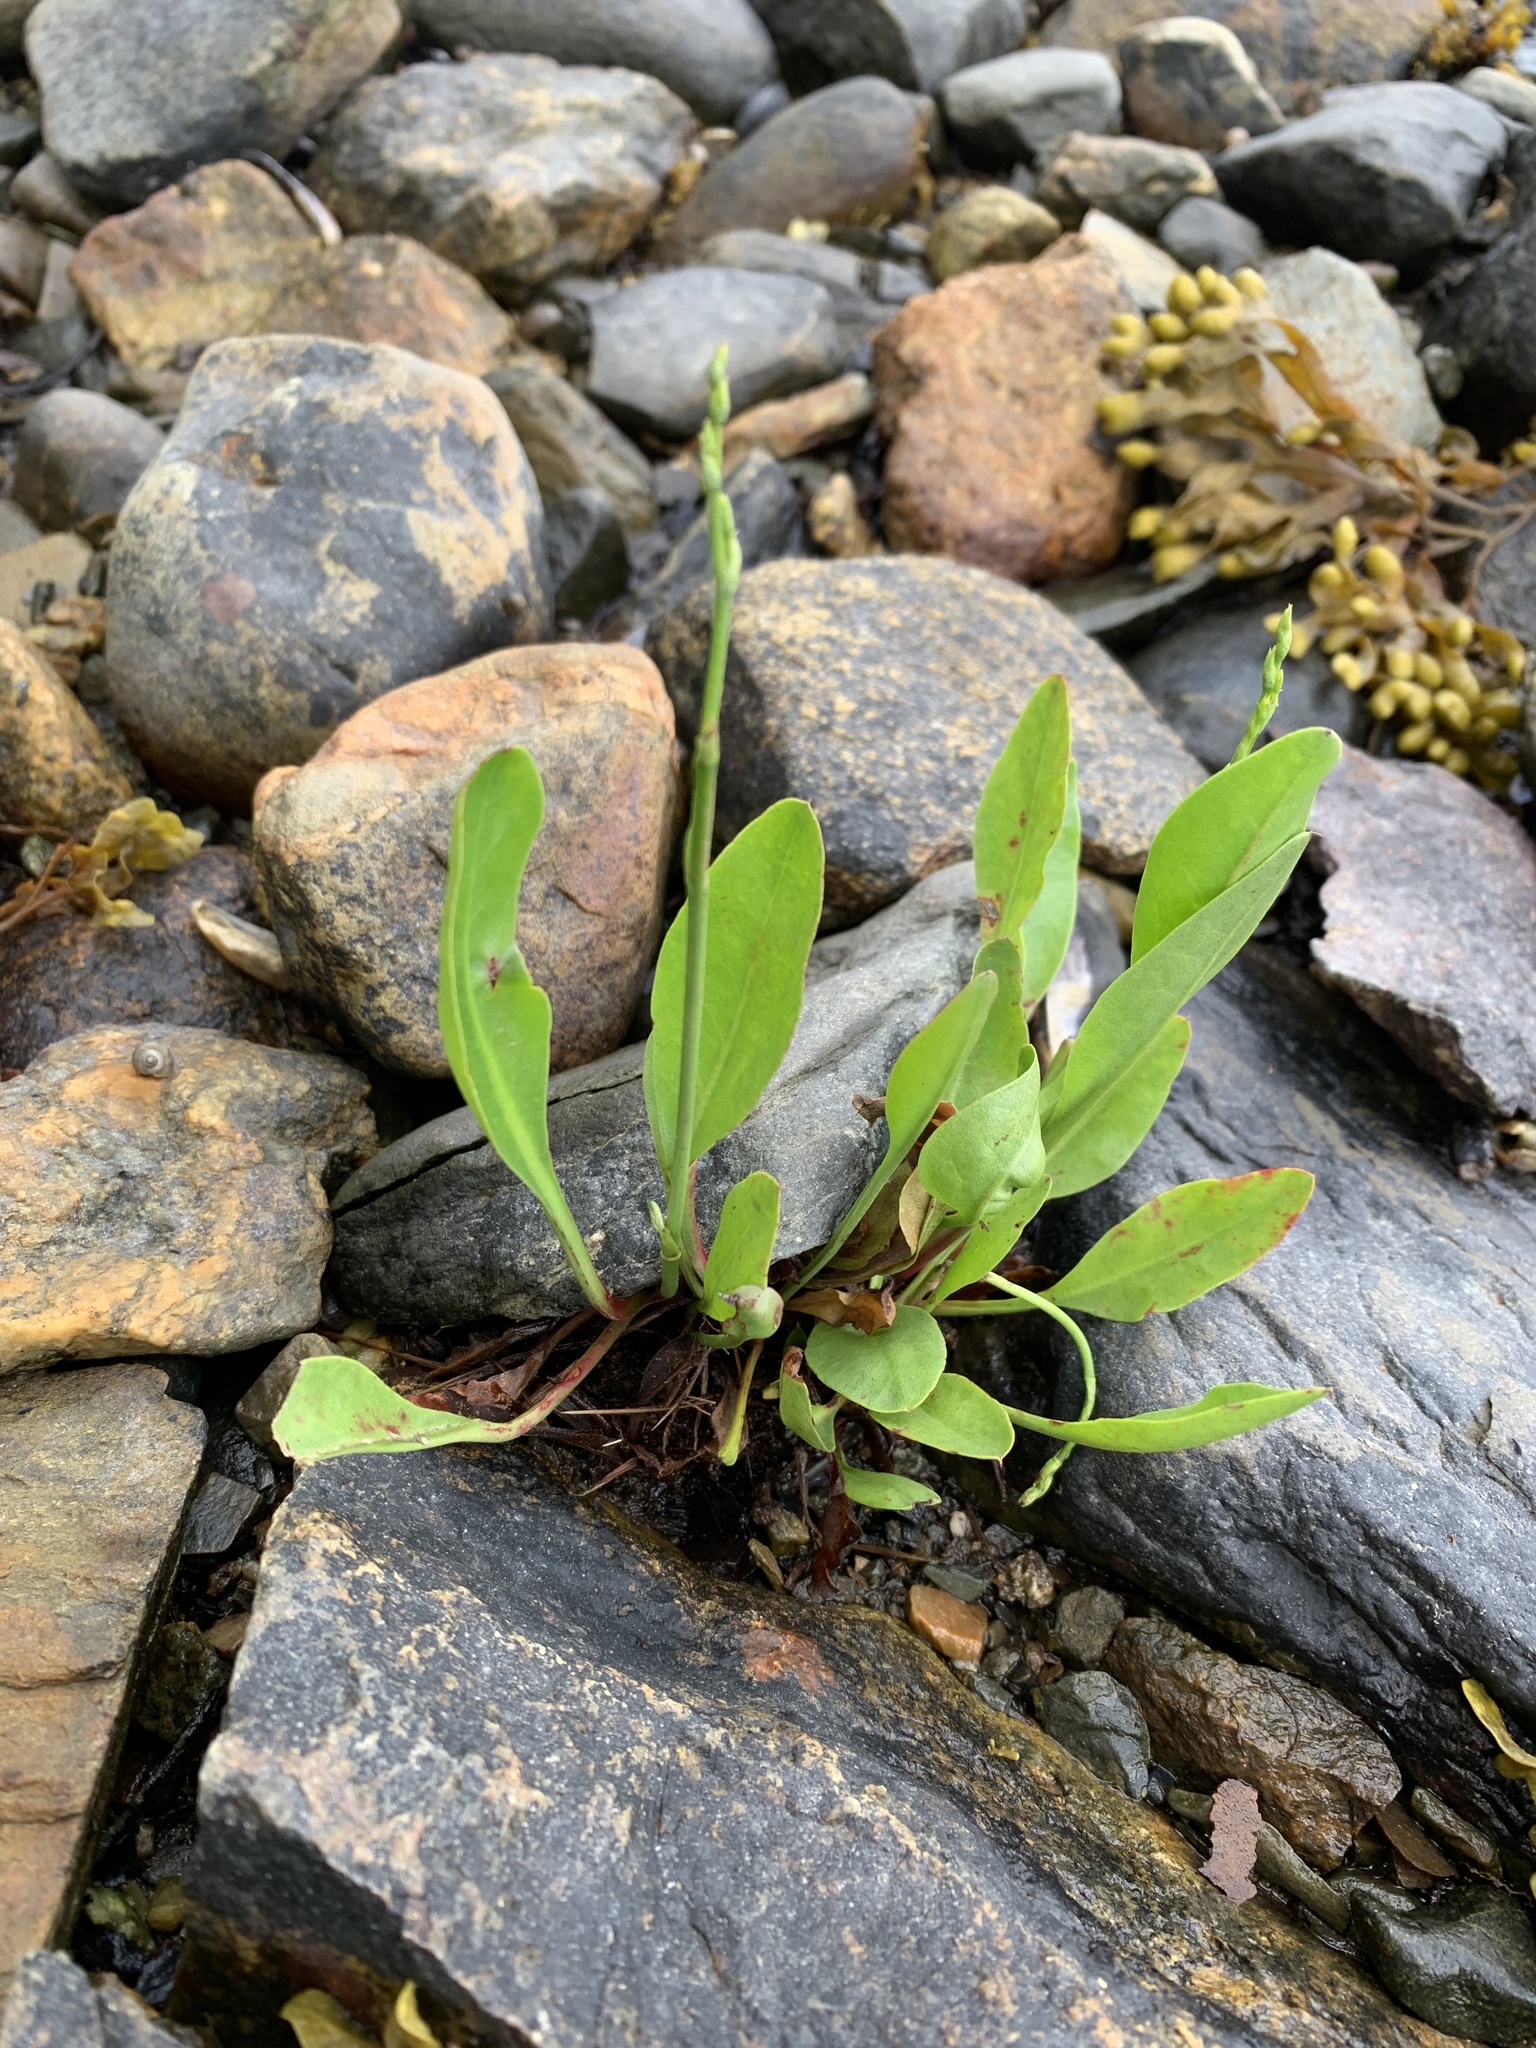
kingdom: Plantae
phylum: Tracheophyta
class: Magnoliopsida
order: Caryophyllales
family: Plumbaginaceae
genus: Limonium
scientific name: Limonium carolinianum
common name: Carolina sea lavender
